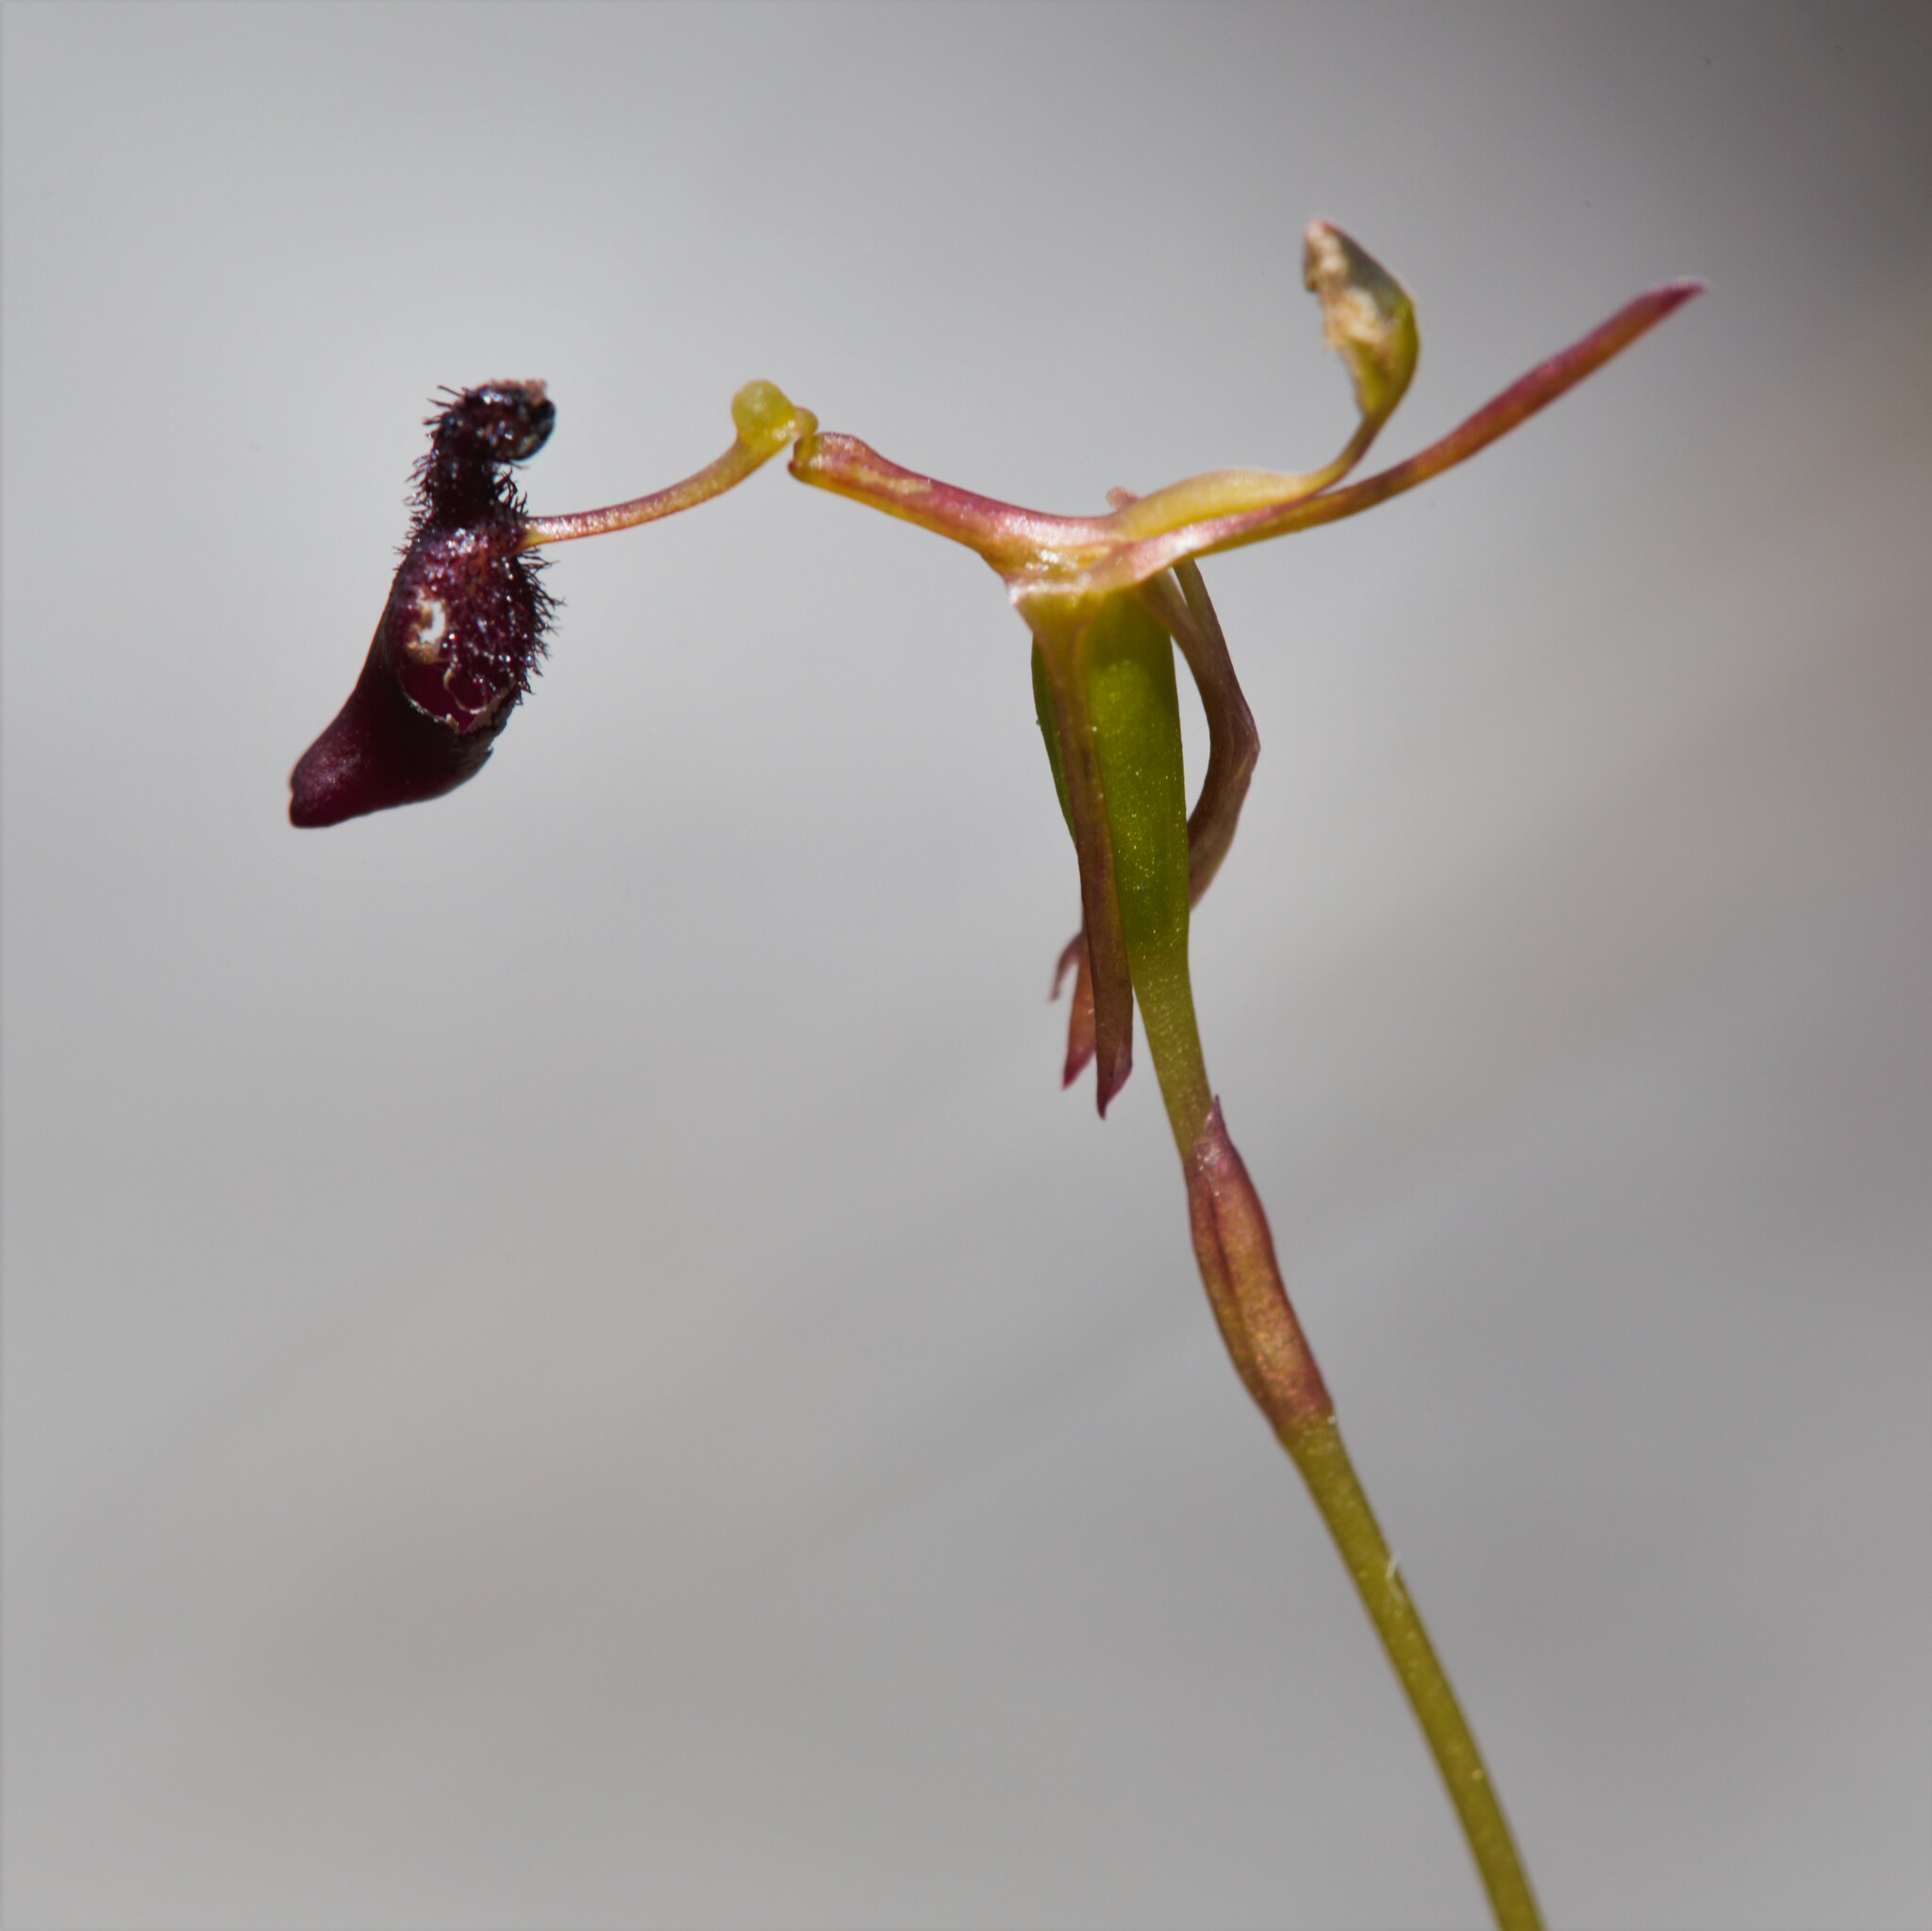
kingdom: Plantae
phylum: Tracheophyta
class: Liliopsida
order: Asparagales
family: Orchidaceae
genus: Drakaea
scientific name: Drakaea micrantha
